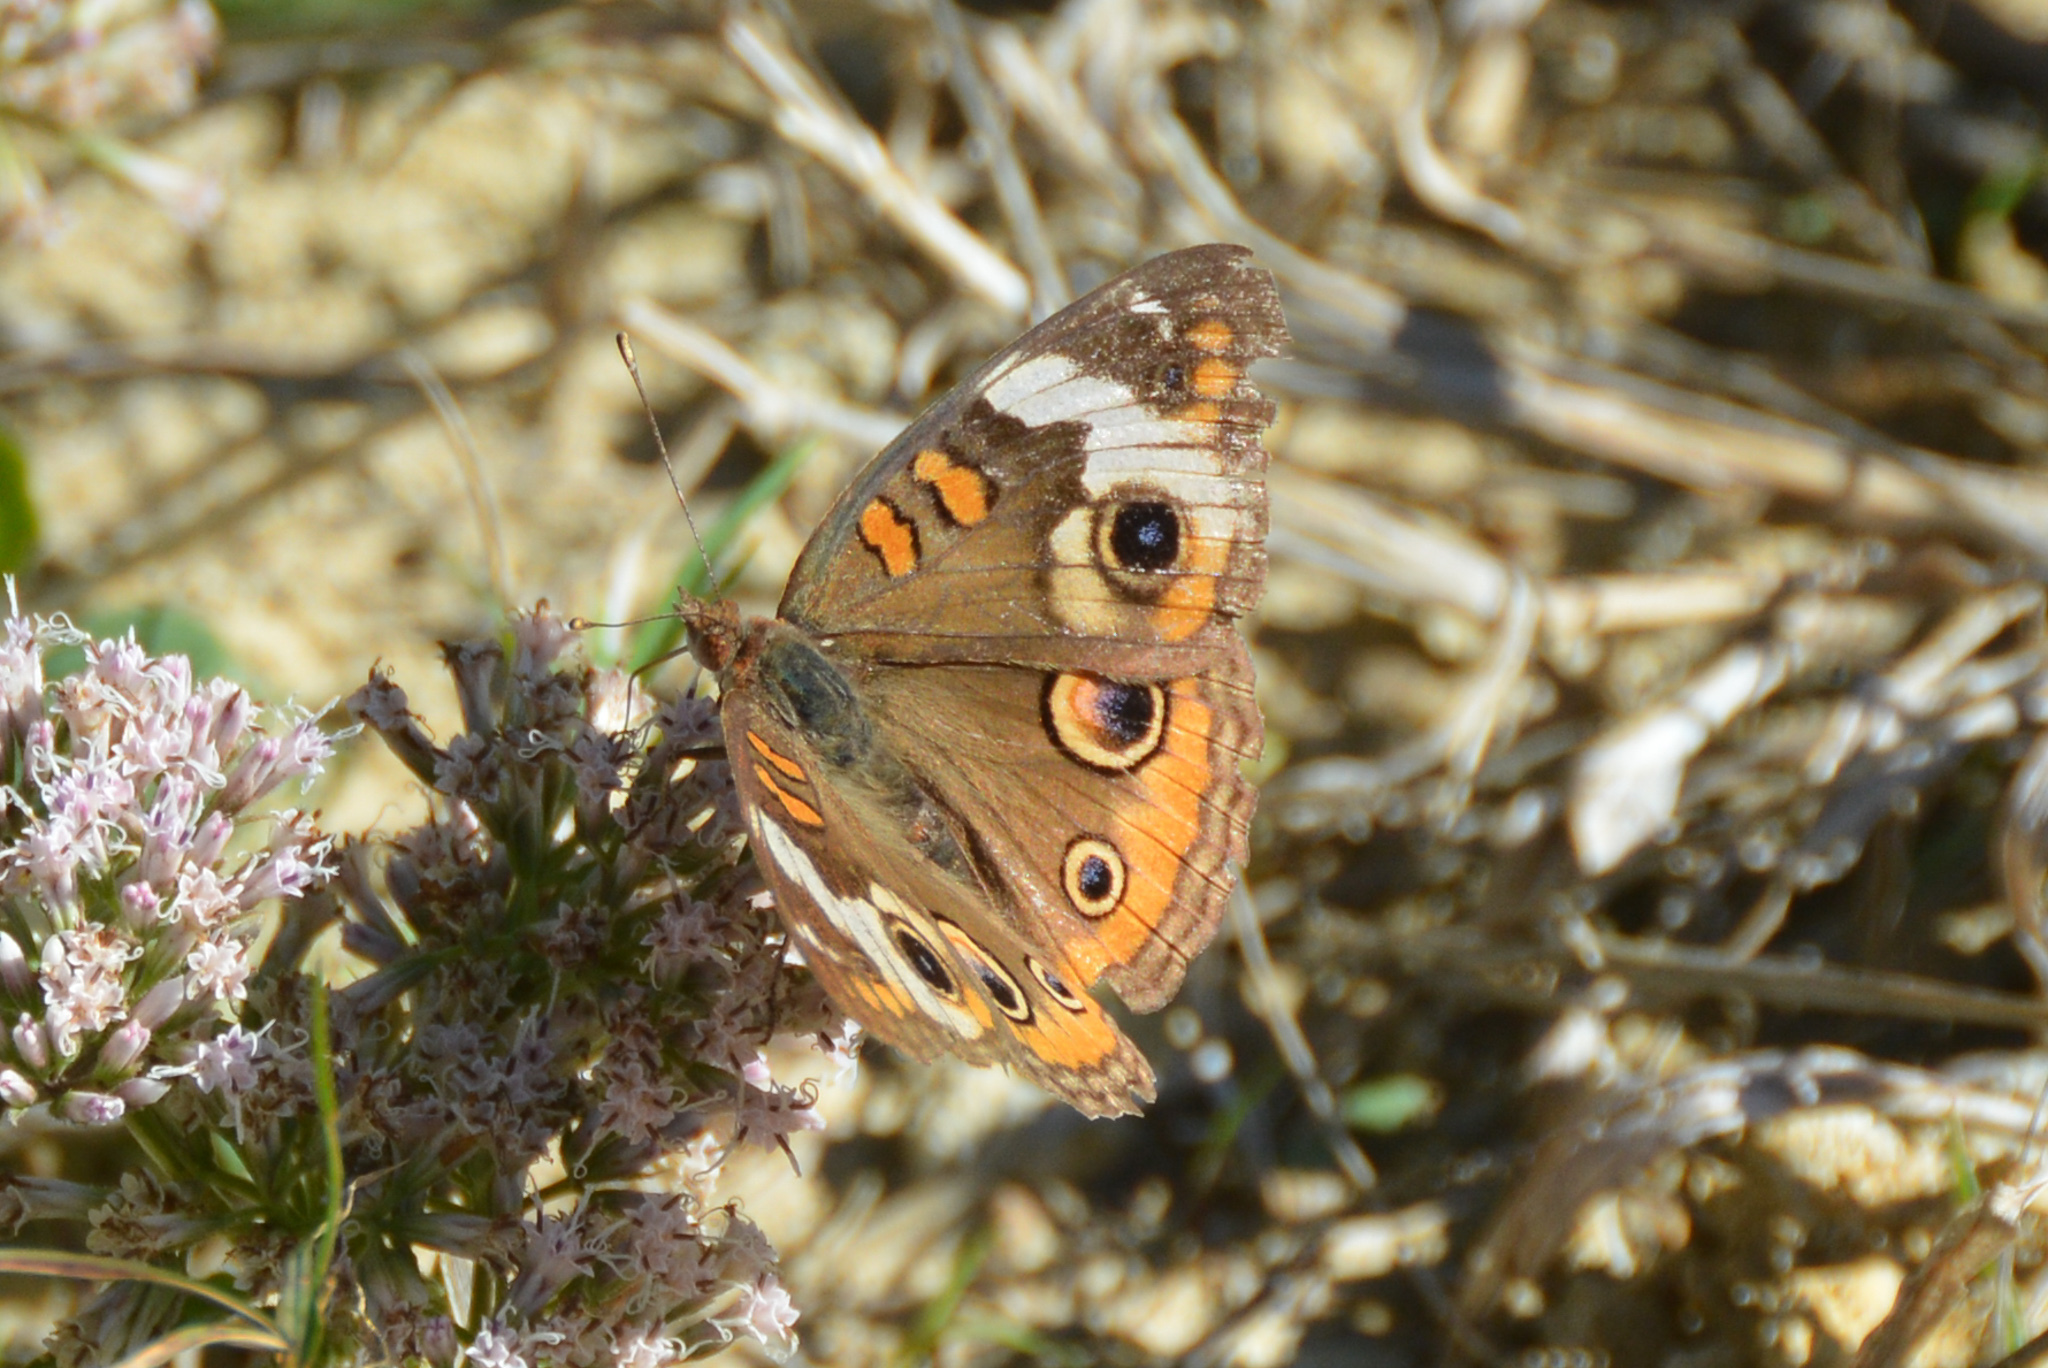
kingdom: Animalia
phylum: Arthropoda
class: Insecta
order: Lepidoptera
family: Nymphalidae
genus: Junonia
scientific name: Junonia coenia
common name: Common buckeye
